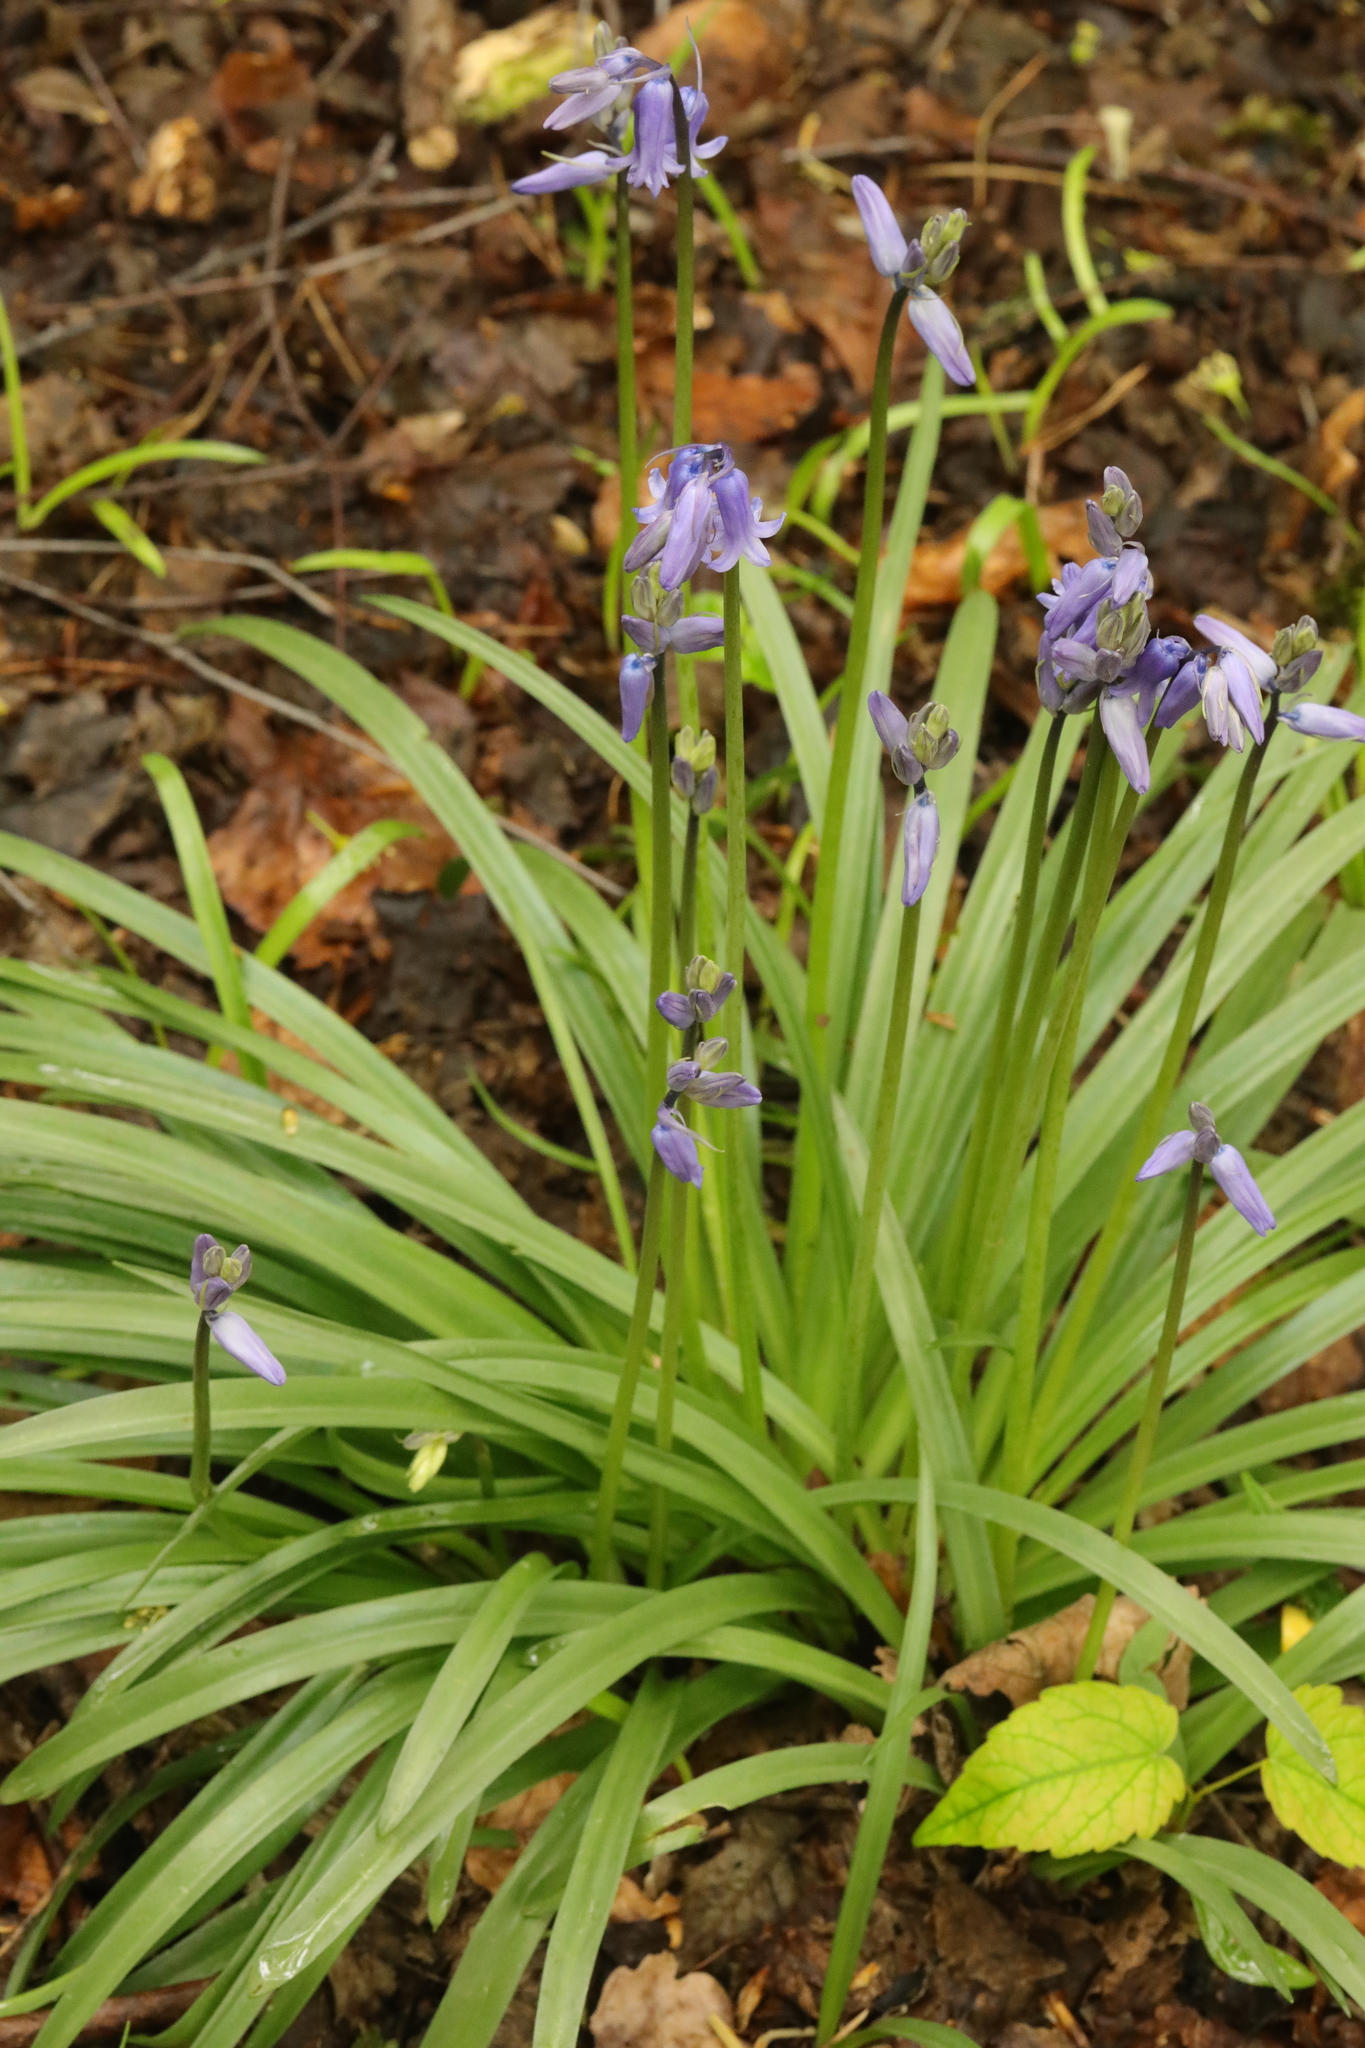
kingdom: Plantae
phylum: Tracheophyta
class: Liliopsida
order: Asparagales
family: Asparagaceae
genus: Hyacinthoides
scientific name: Hyacinthoides non-scripta
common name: Bluebell
